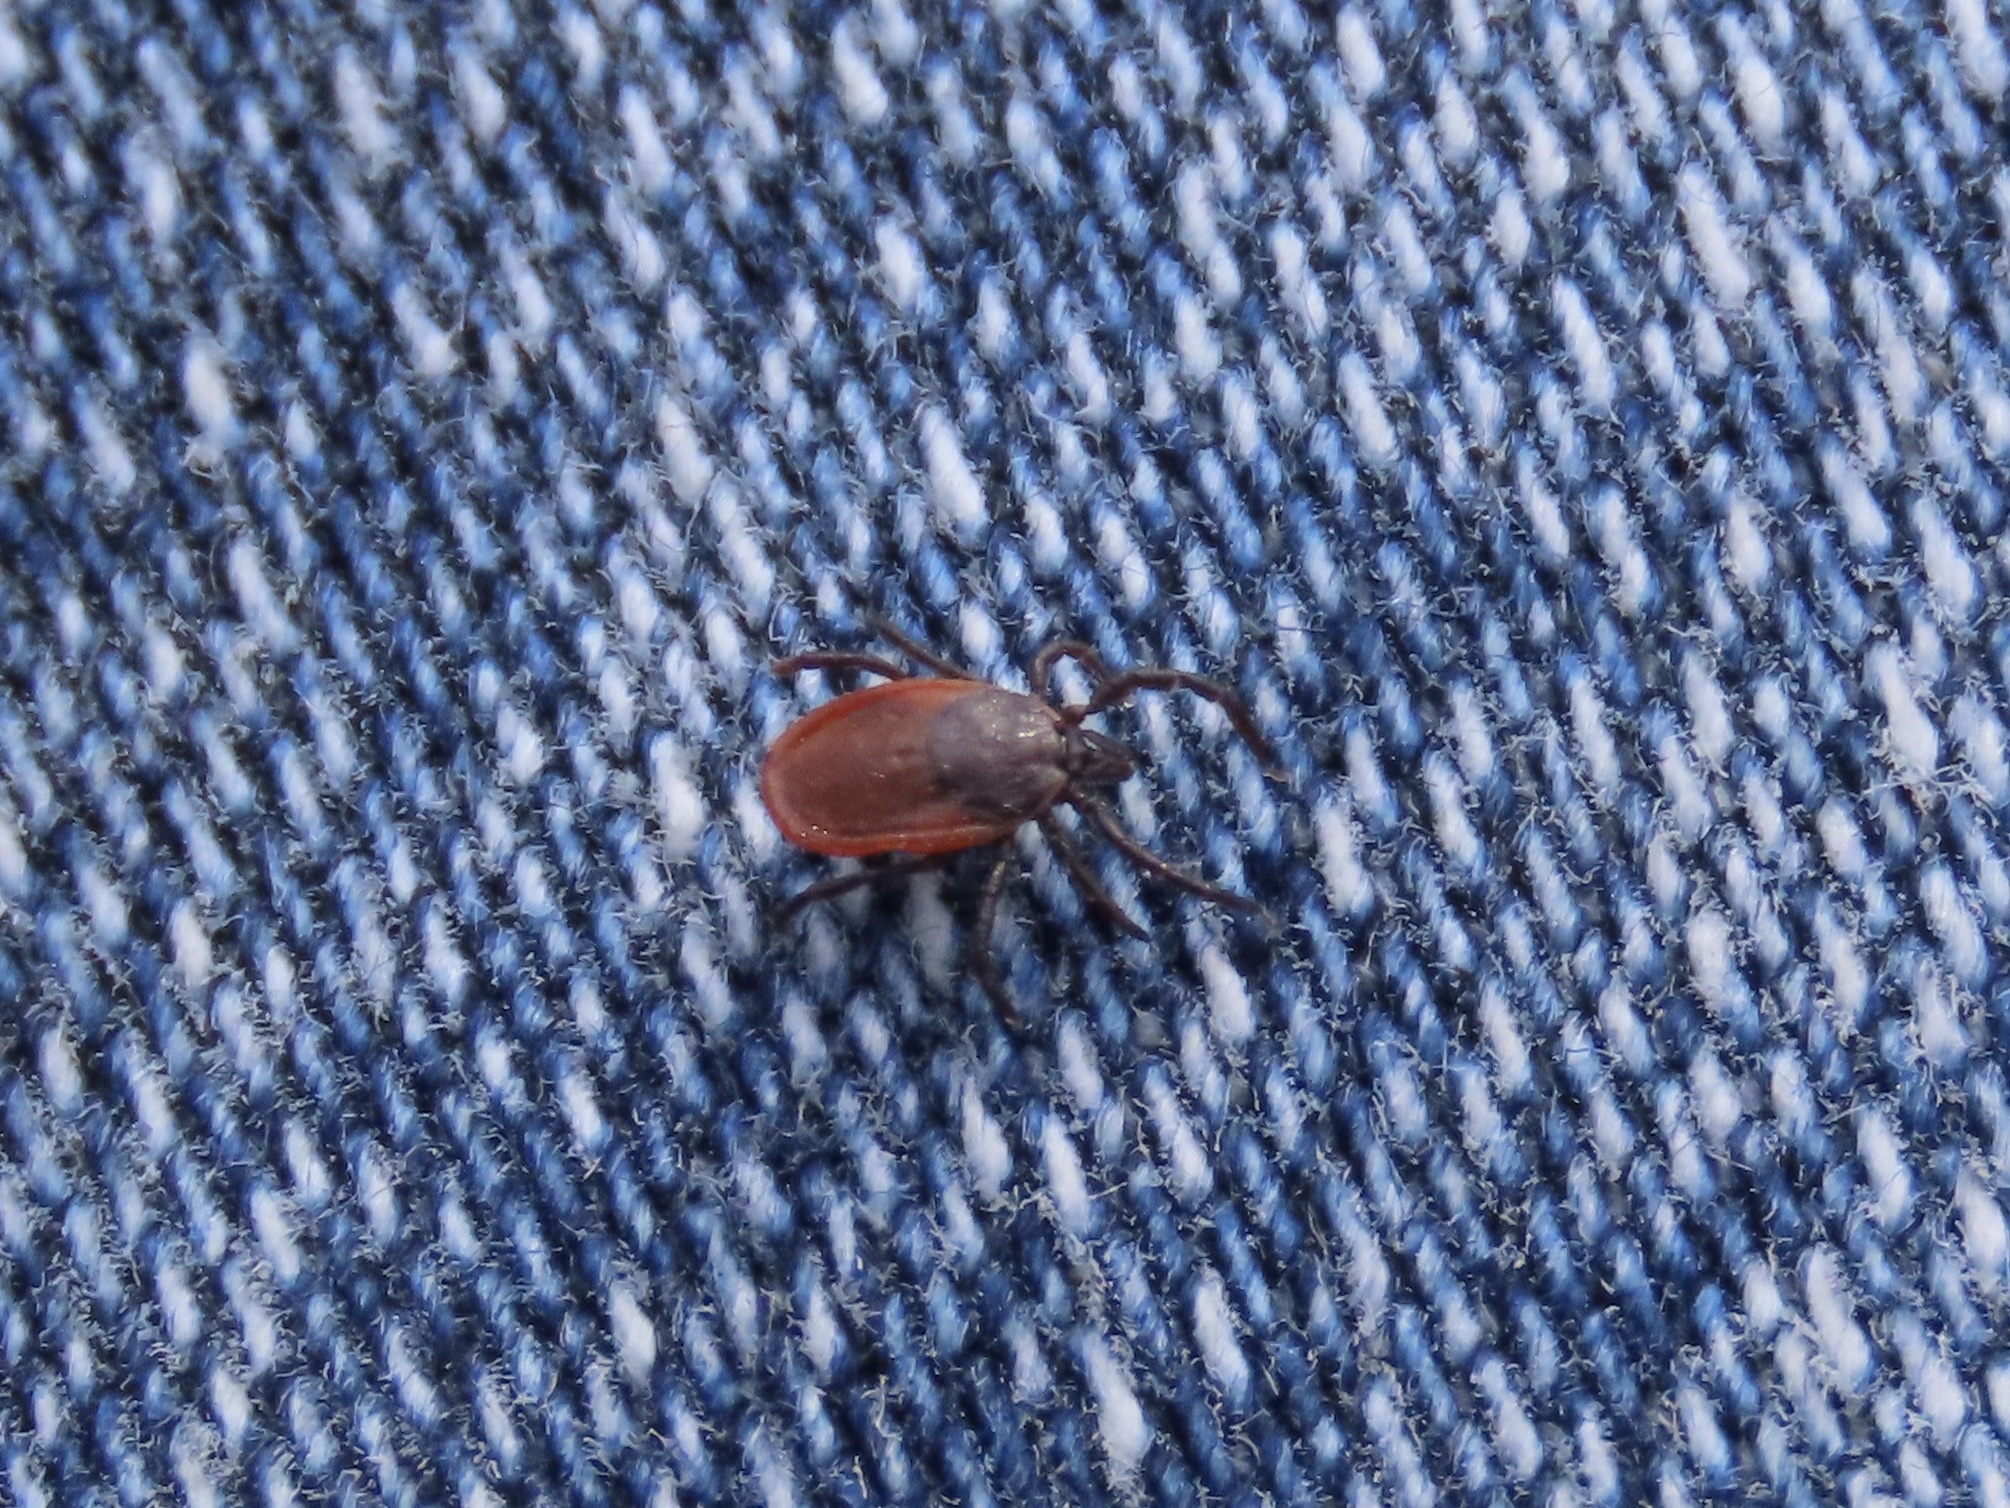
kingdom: Animalia
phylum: Arthropoda
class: Arachnida
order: Ixodida
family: Ixodidae
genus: Ixodes
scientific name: Ixodes pacificus
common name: California black-legged tick
